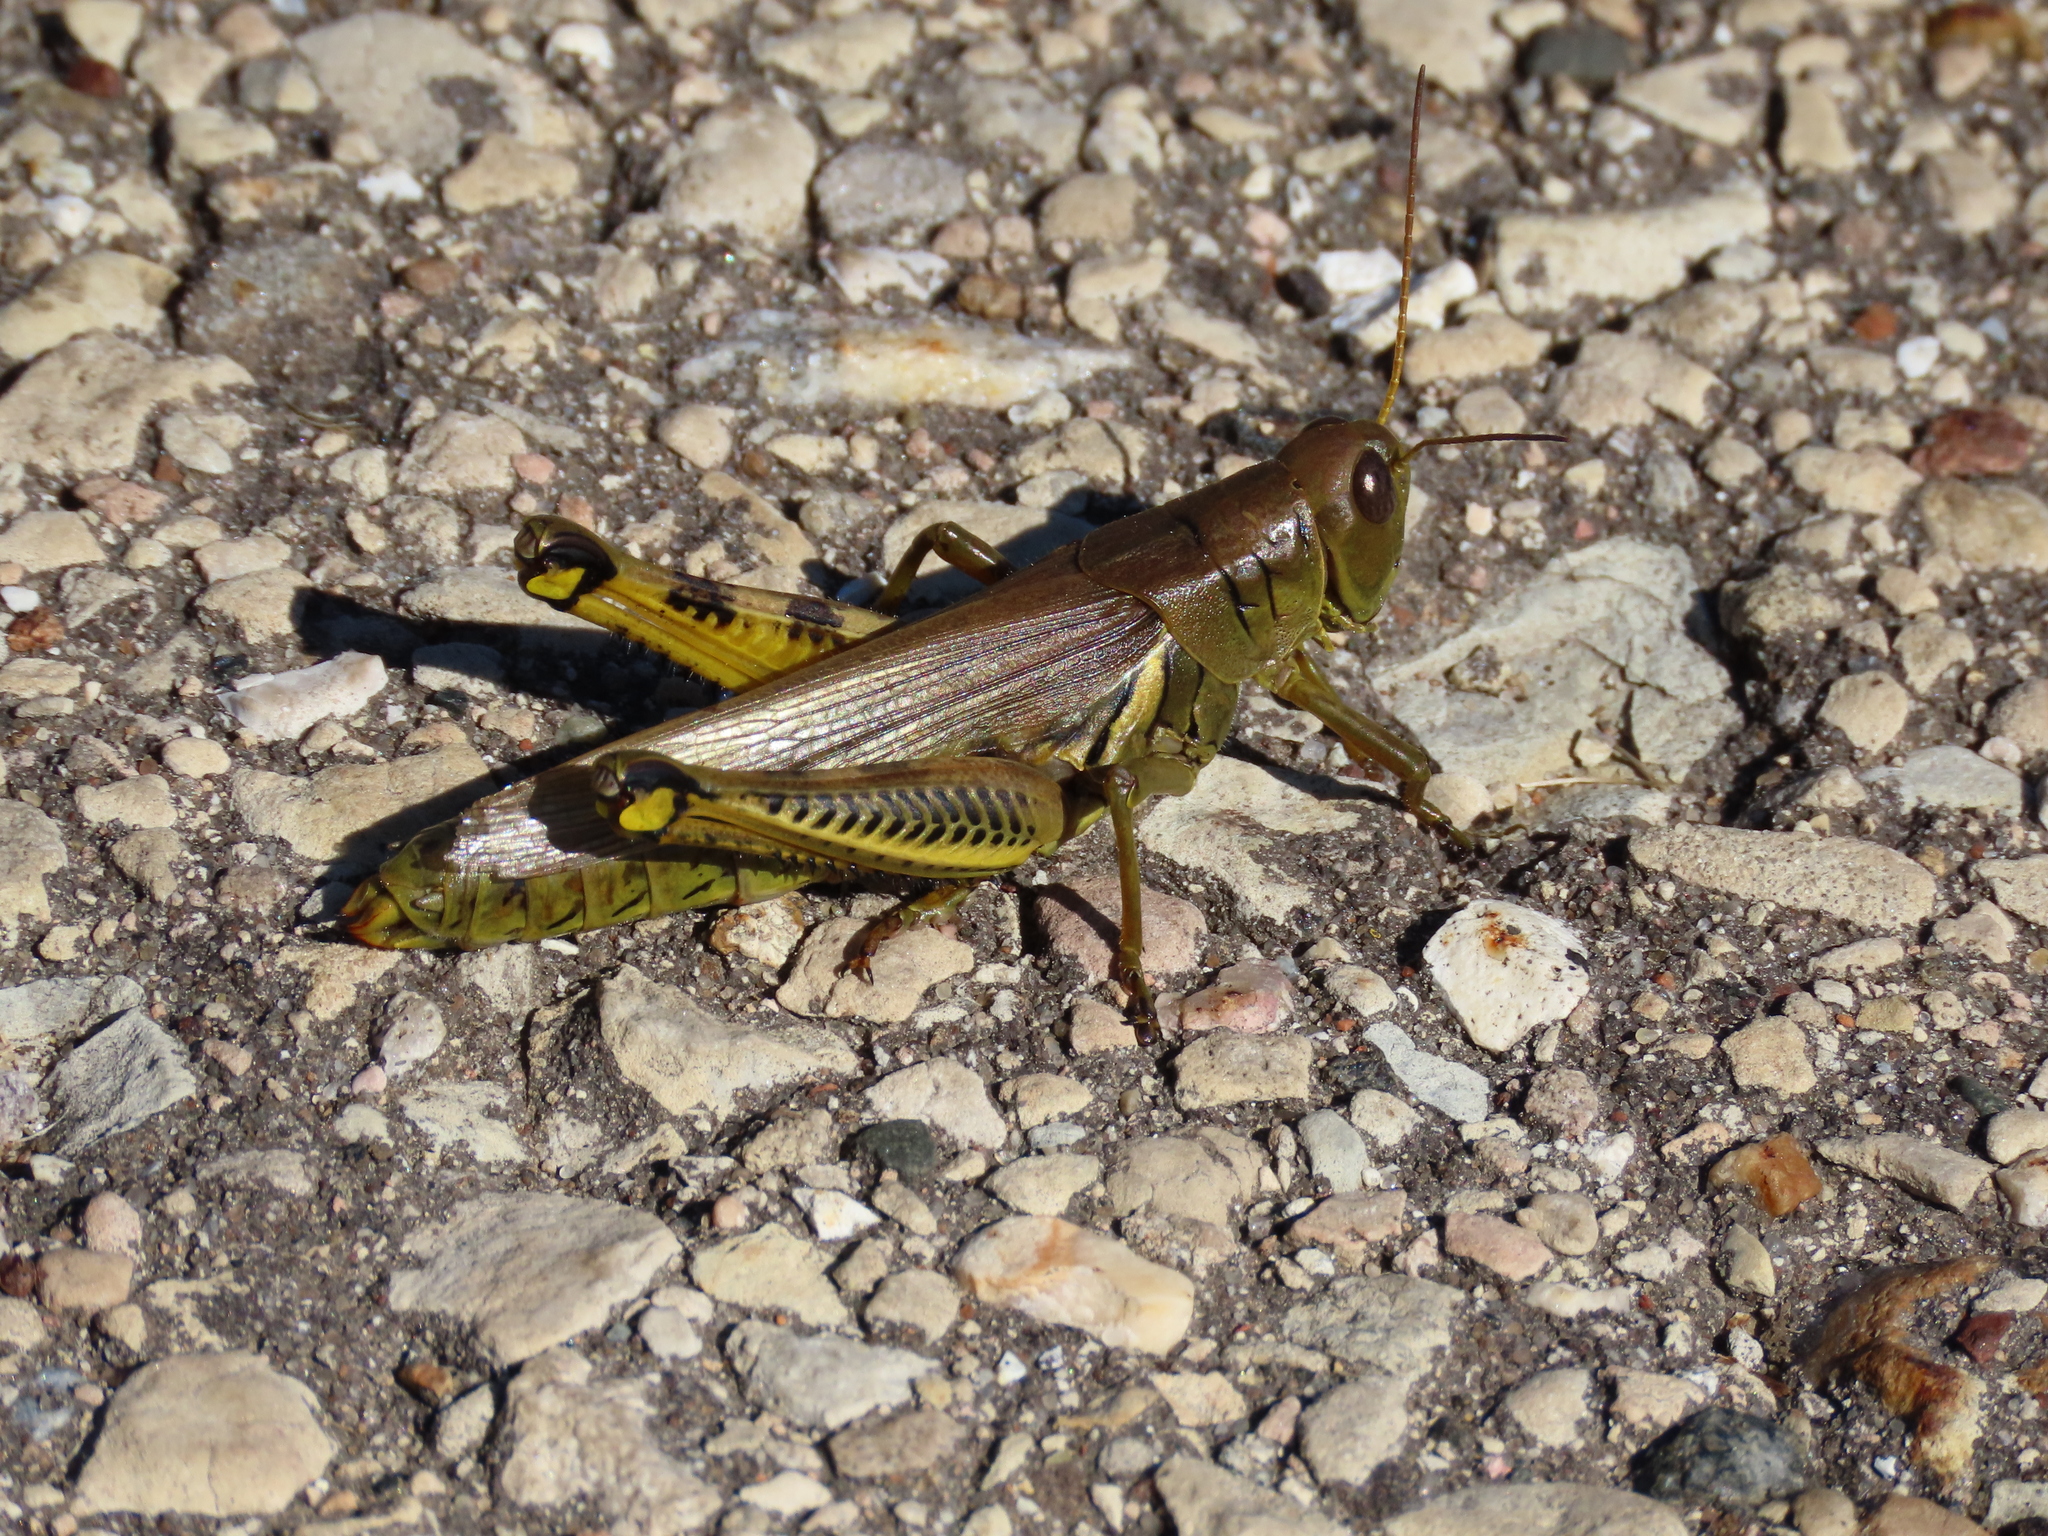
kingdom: Animalia
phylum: Arthropoda
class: Insecta
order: Orthoptera
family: Acrididae
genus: Melanoplus
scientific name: Melanoplus differentialis
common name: Differential grasshopper
